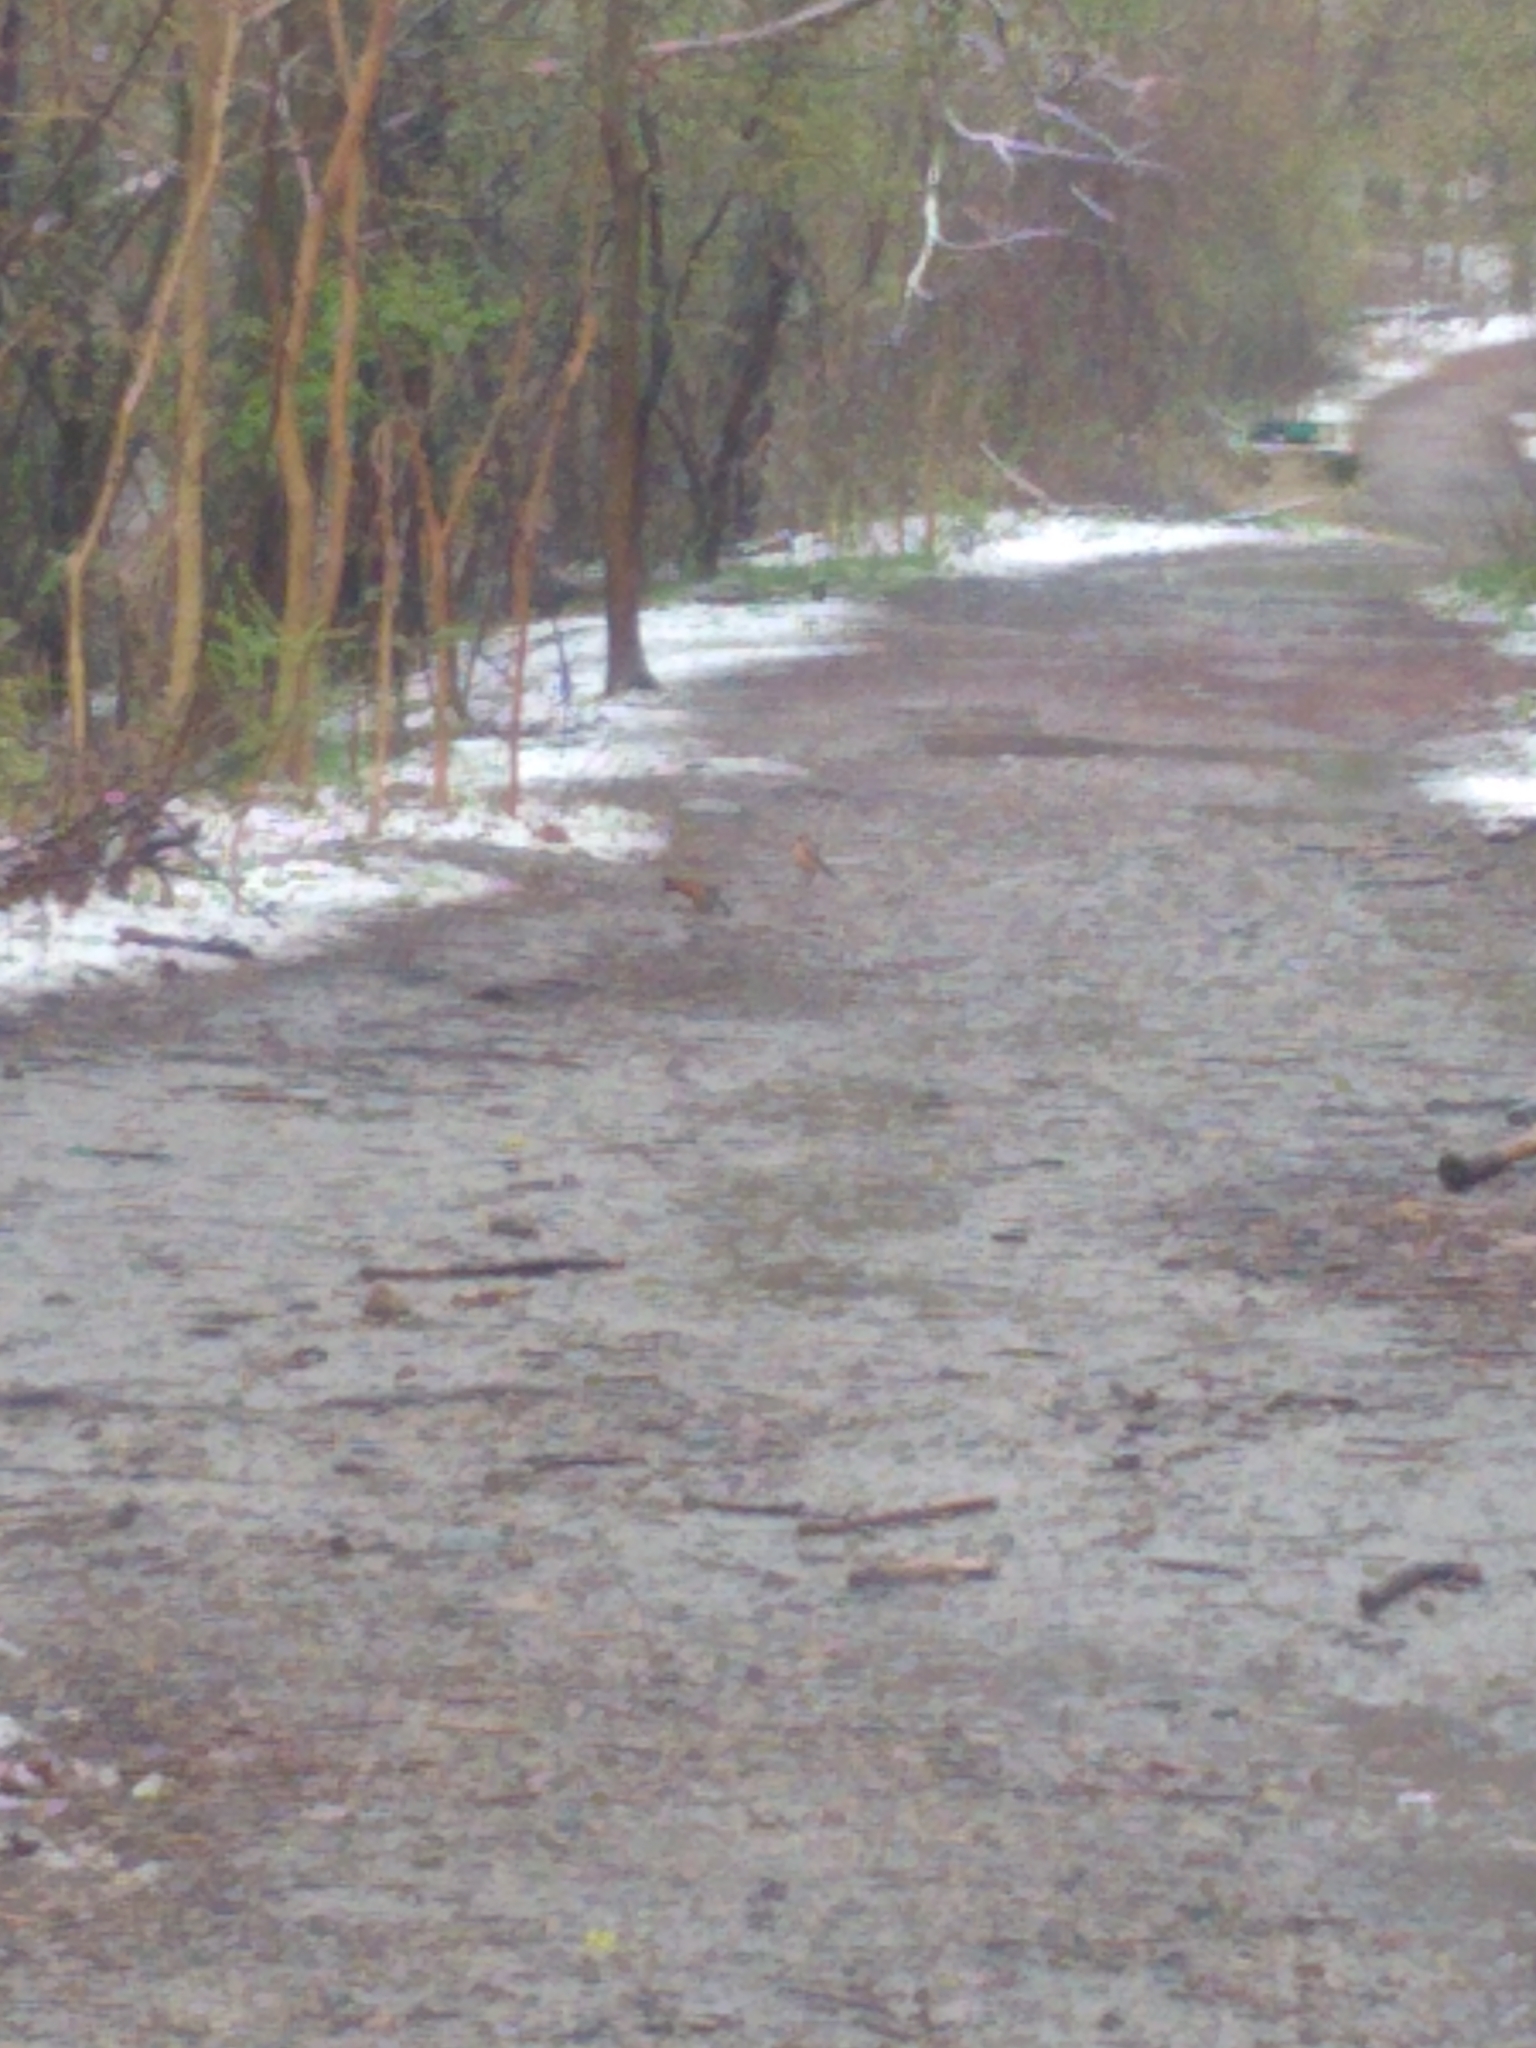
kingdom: Animalia
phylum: Chordata
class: Aves
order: Passeriformes
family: Turdidae
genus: Turdus
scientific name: Turdus migratorius
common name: American robin
